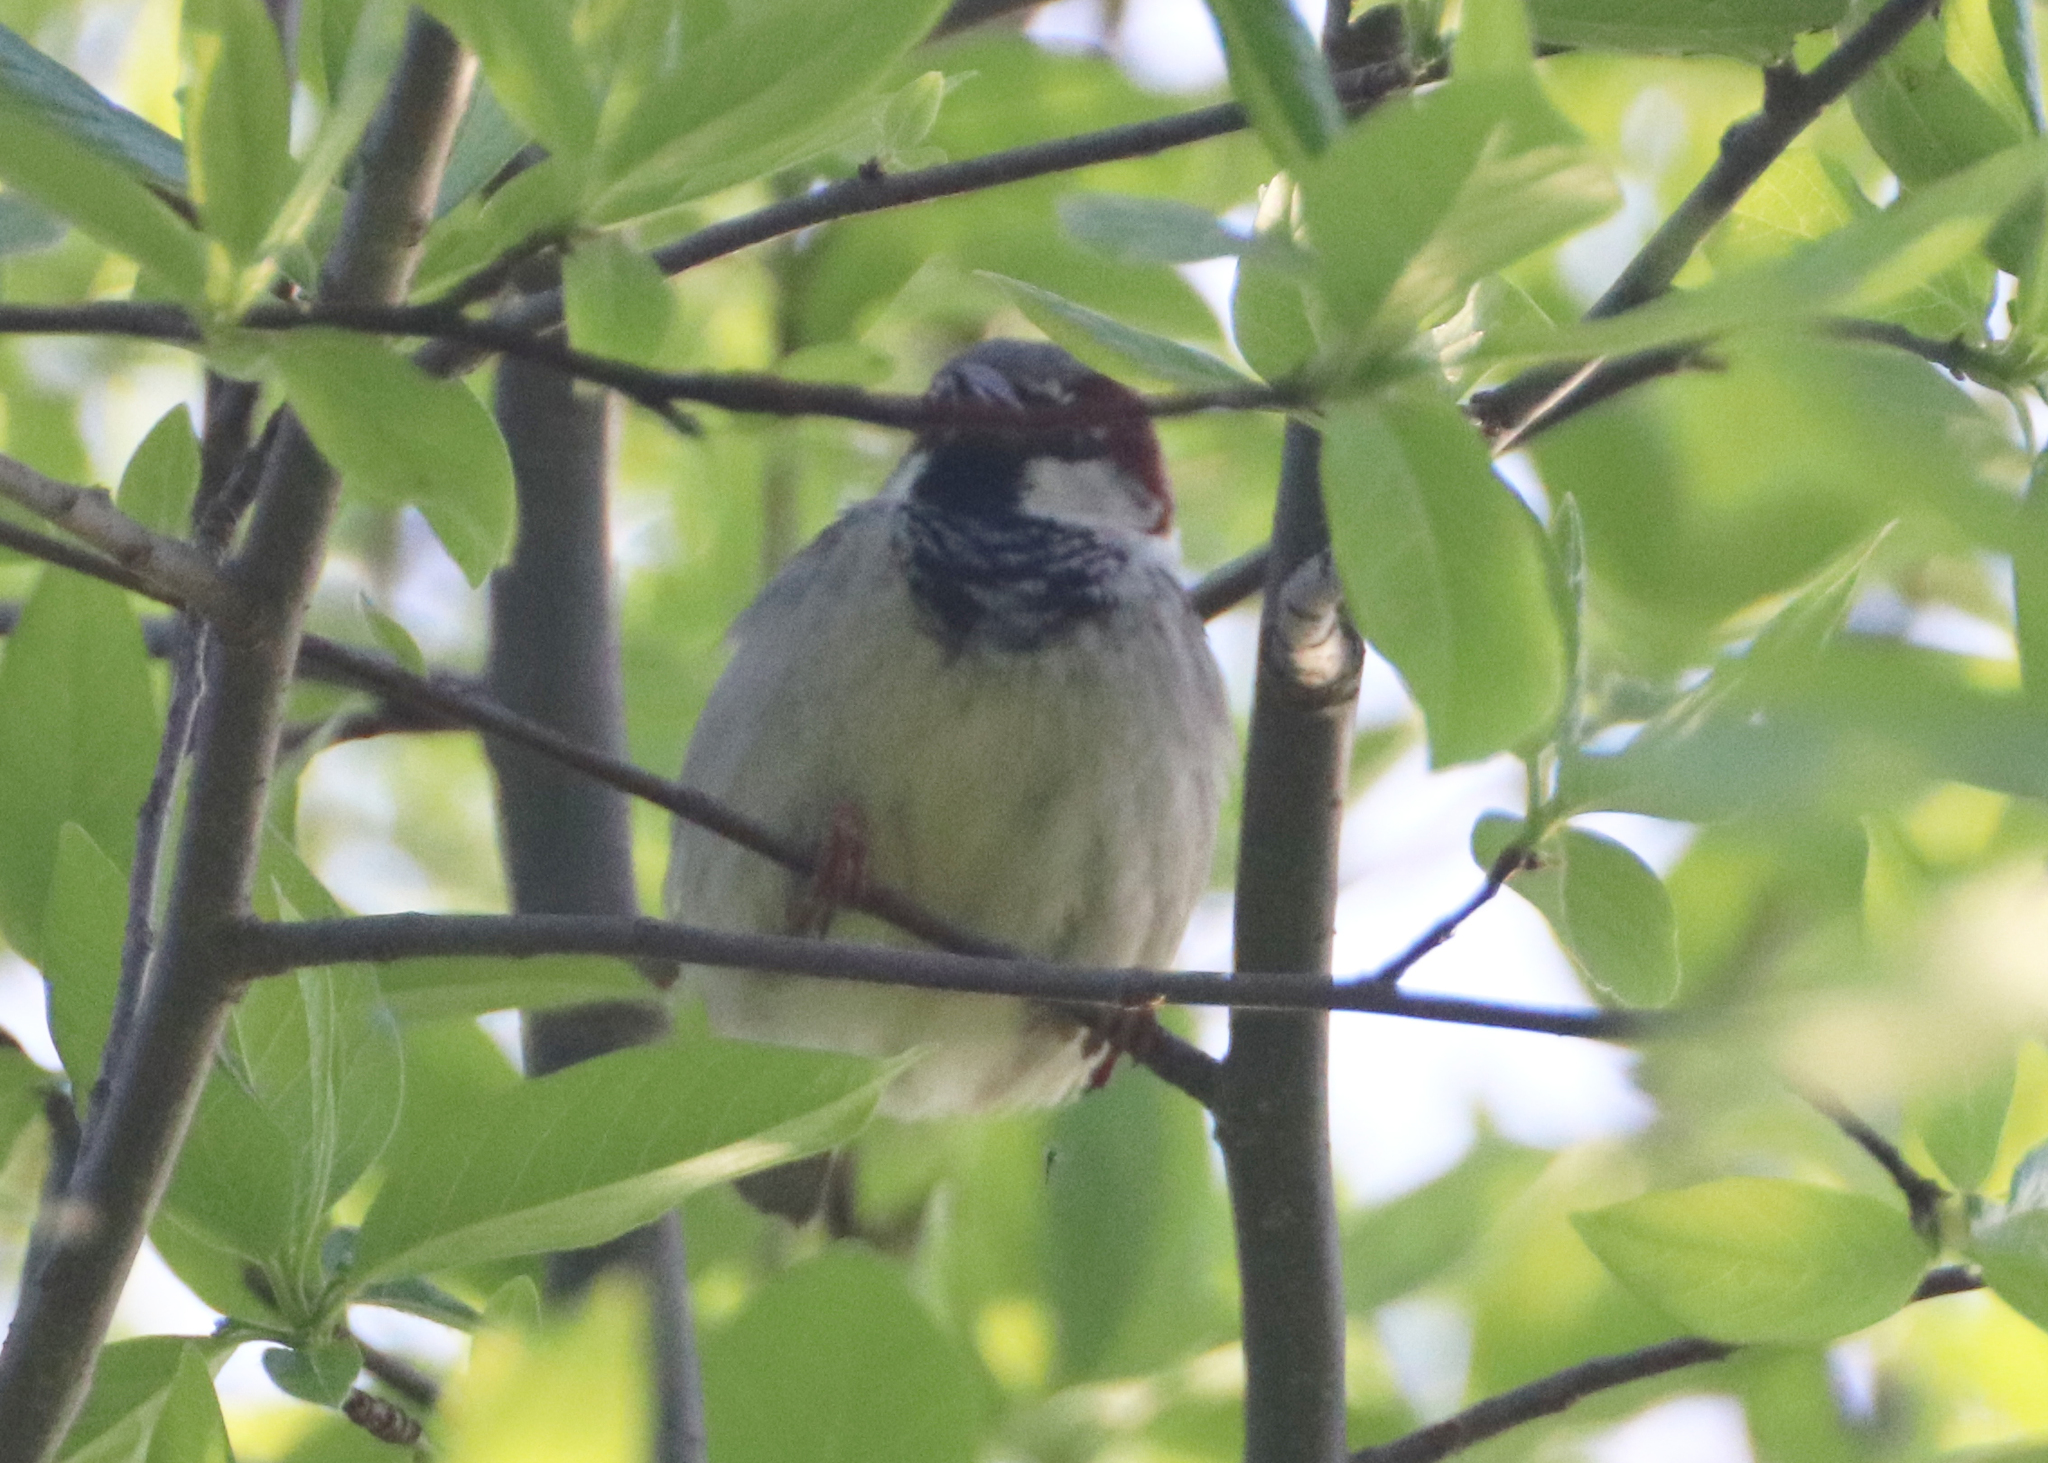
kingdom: Animalia
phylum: Chordata
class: Aves
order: Passeriformes
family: Passeridae
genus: Passer
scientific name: Passer domesticus
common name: House sparrow
